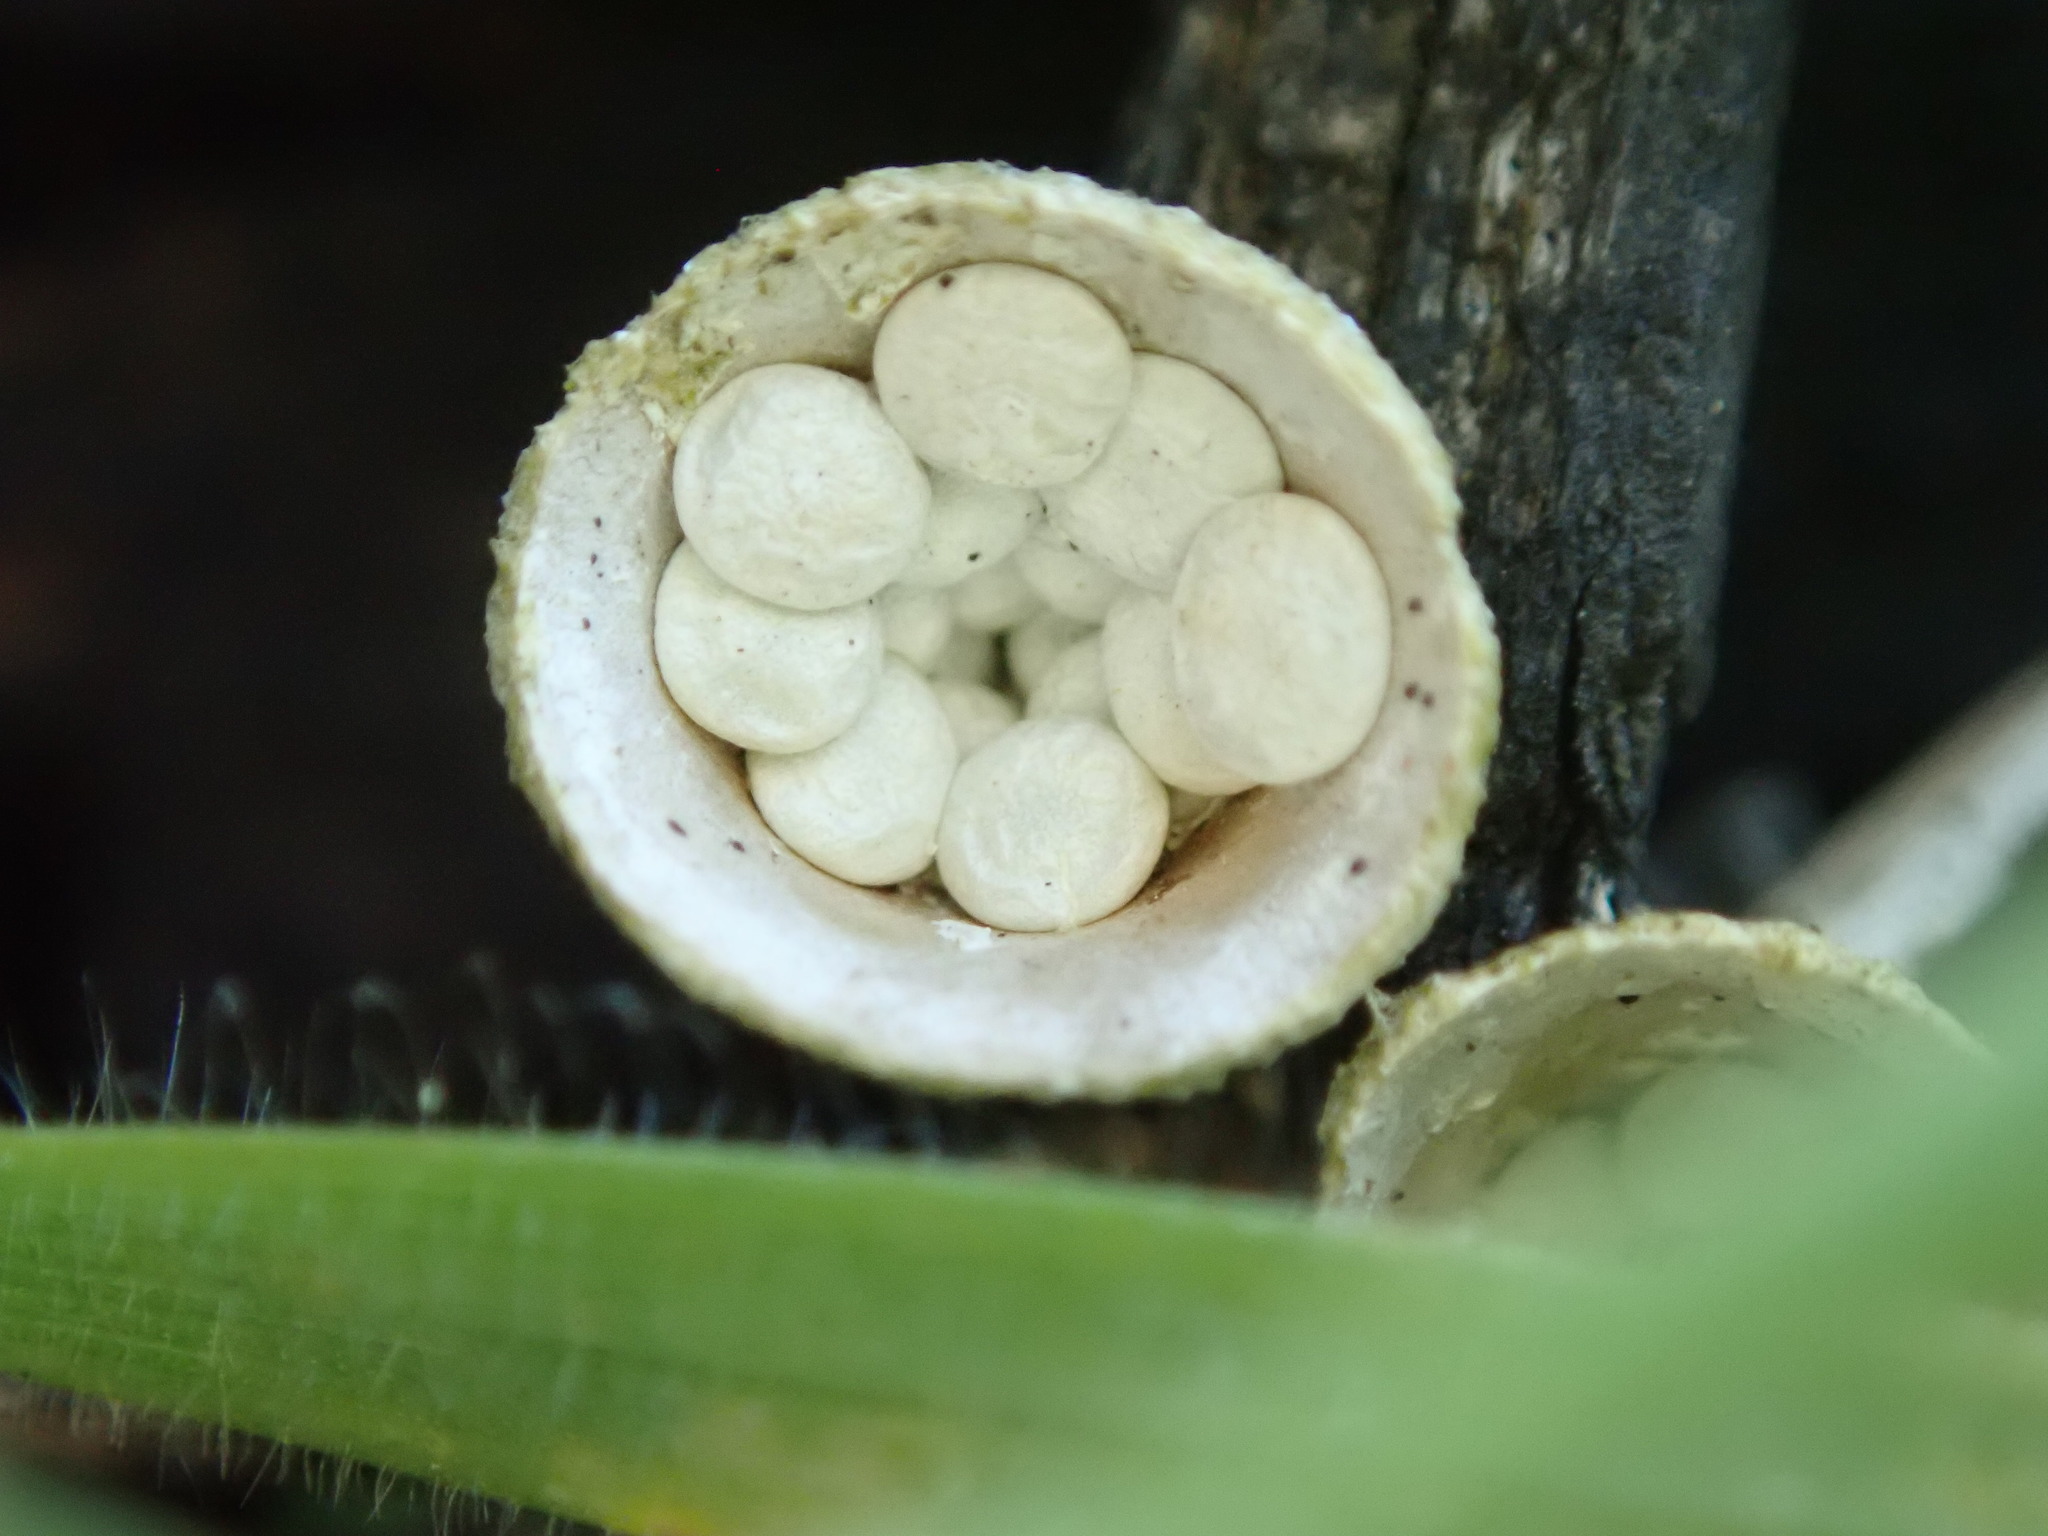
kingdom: Fungi
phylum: Basidiomycota
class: Agaricomycetes
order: Agaricales
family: Nidulariaceae
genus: Crucibulum
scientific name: Crucibulum laeve
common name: Common bird's nest
